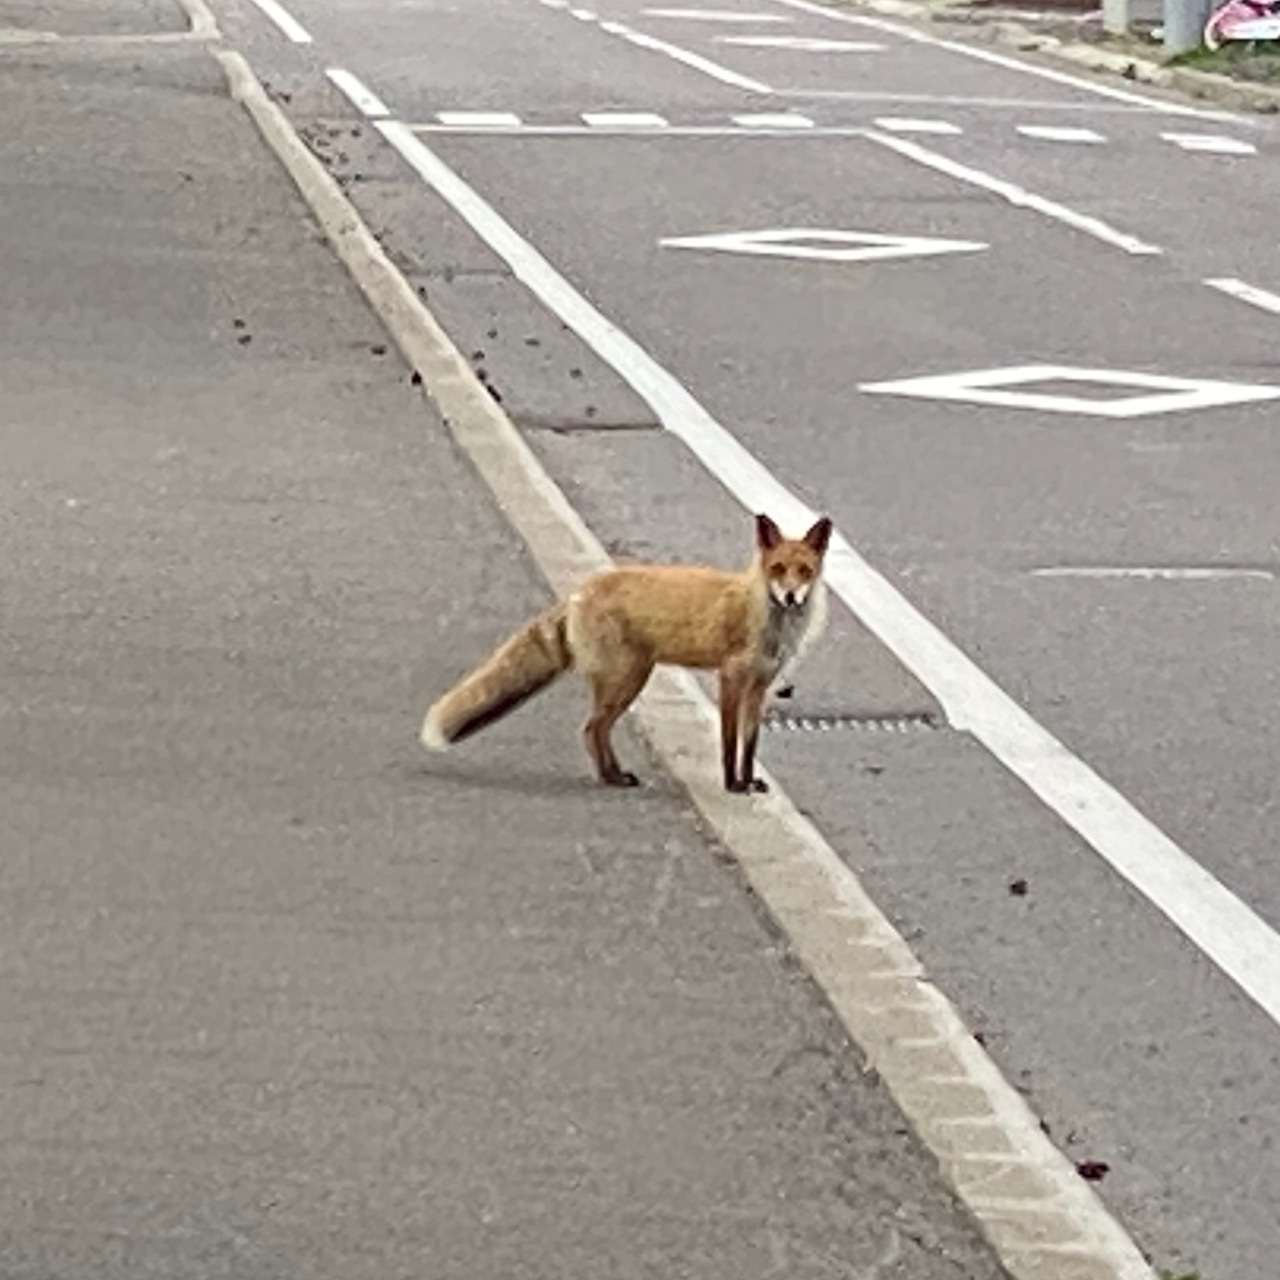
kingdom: Animalia
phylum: Chordata
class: Mammalia
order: Carnivora
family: Canidae
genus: Vulpes
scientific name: Vulpes vulpes
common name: Red fox
